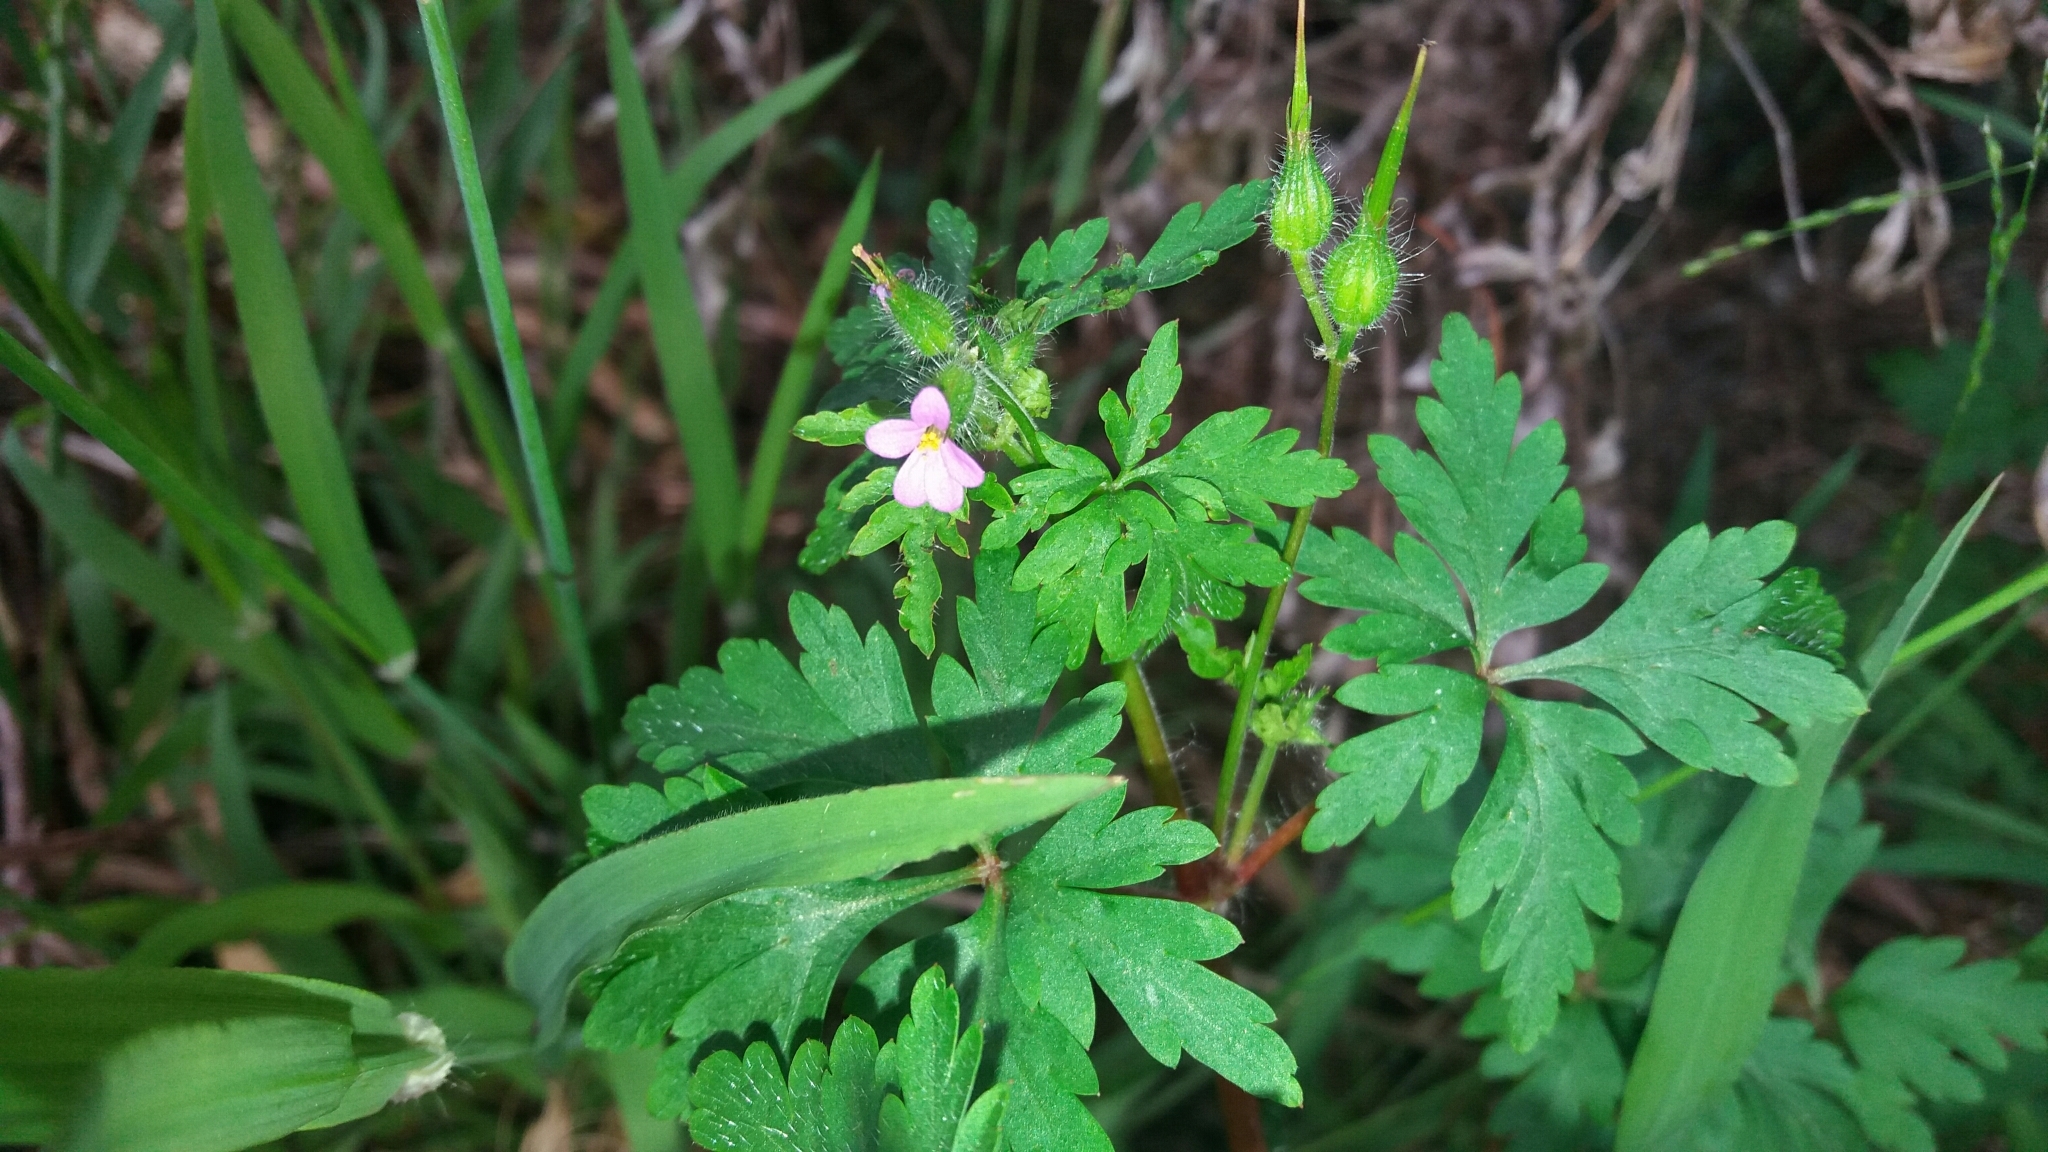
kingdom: Plantae
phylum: Tracheophyta
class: Magnoliopsida
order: Geraniales
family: Geraniaceae
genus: Geranium
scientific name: Geranium robertianum
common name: Herb-robert
